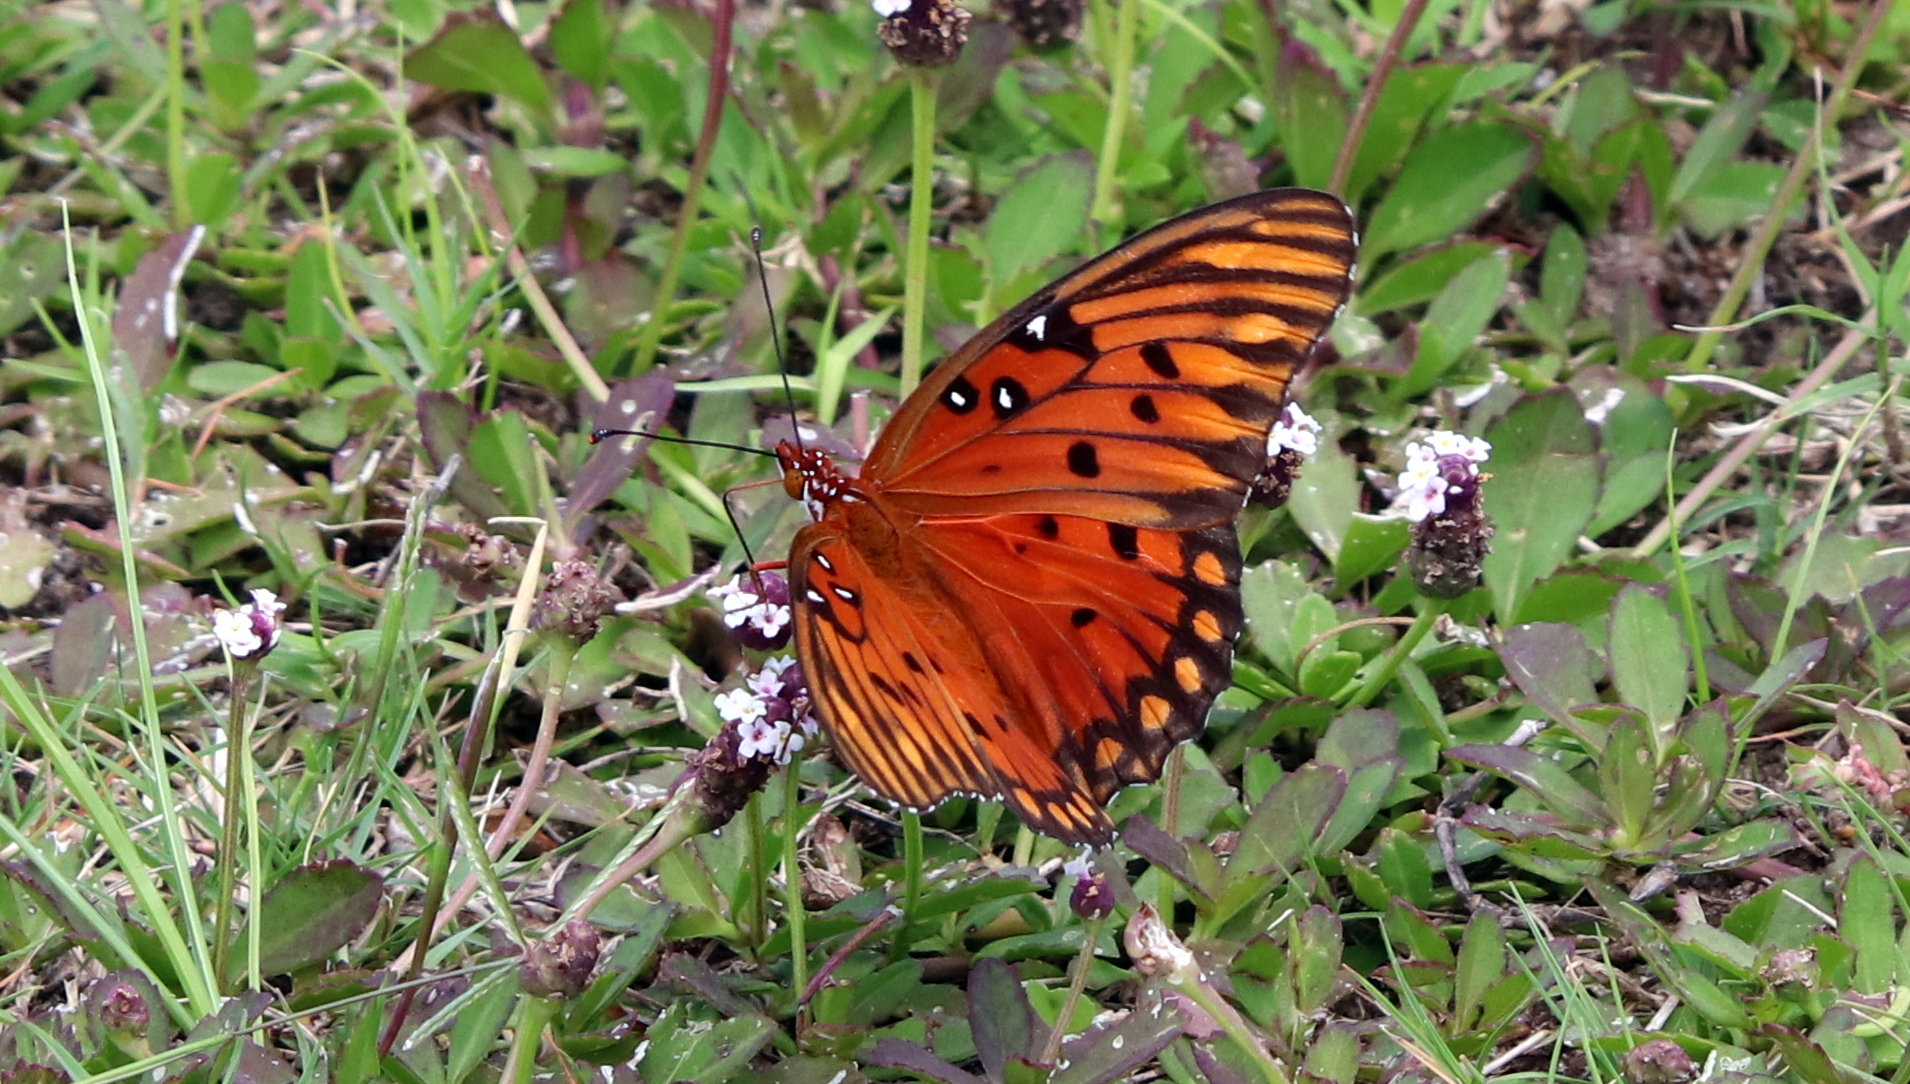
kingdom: Animalia
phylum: Arthropoda
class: Insecta
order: Lepidoptera
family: Nymphalidae
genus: Dione
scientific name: Dione vanillae
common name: Gulf fritillary
